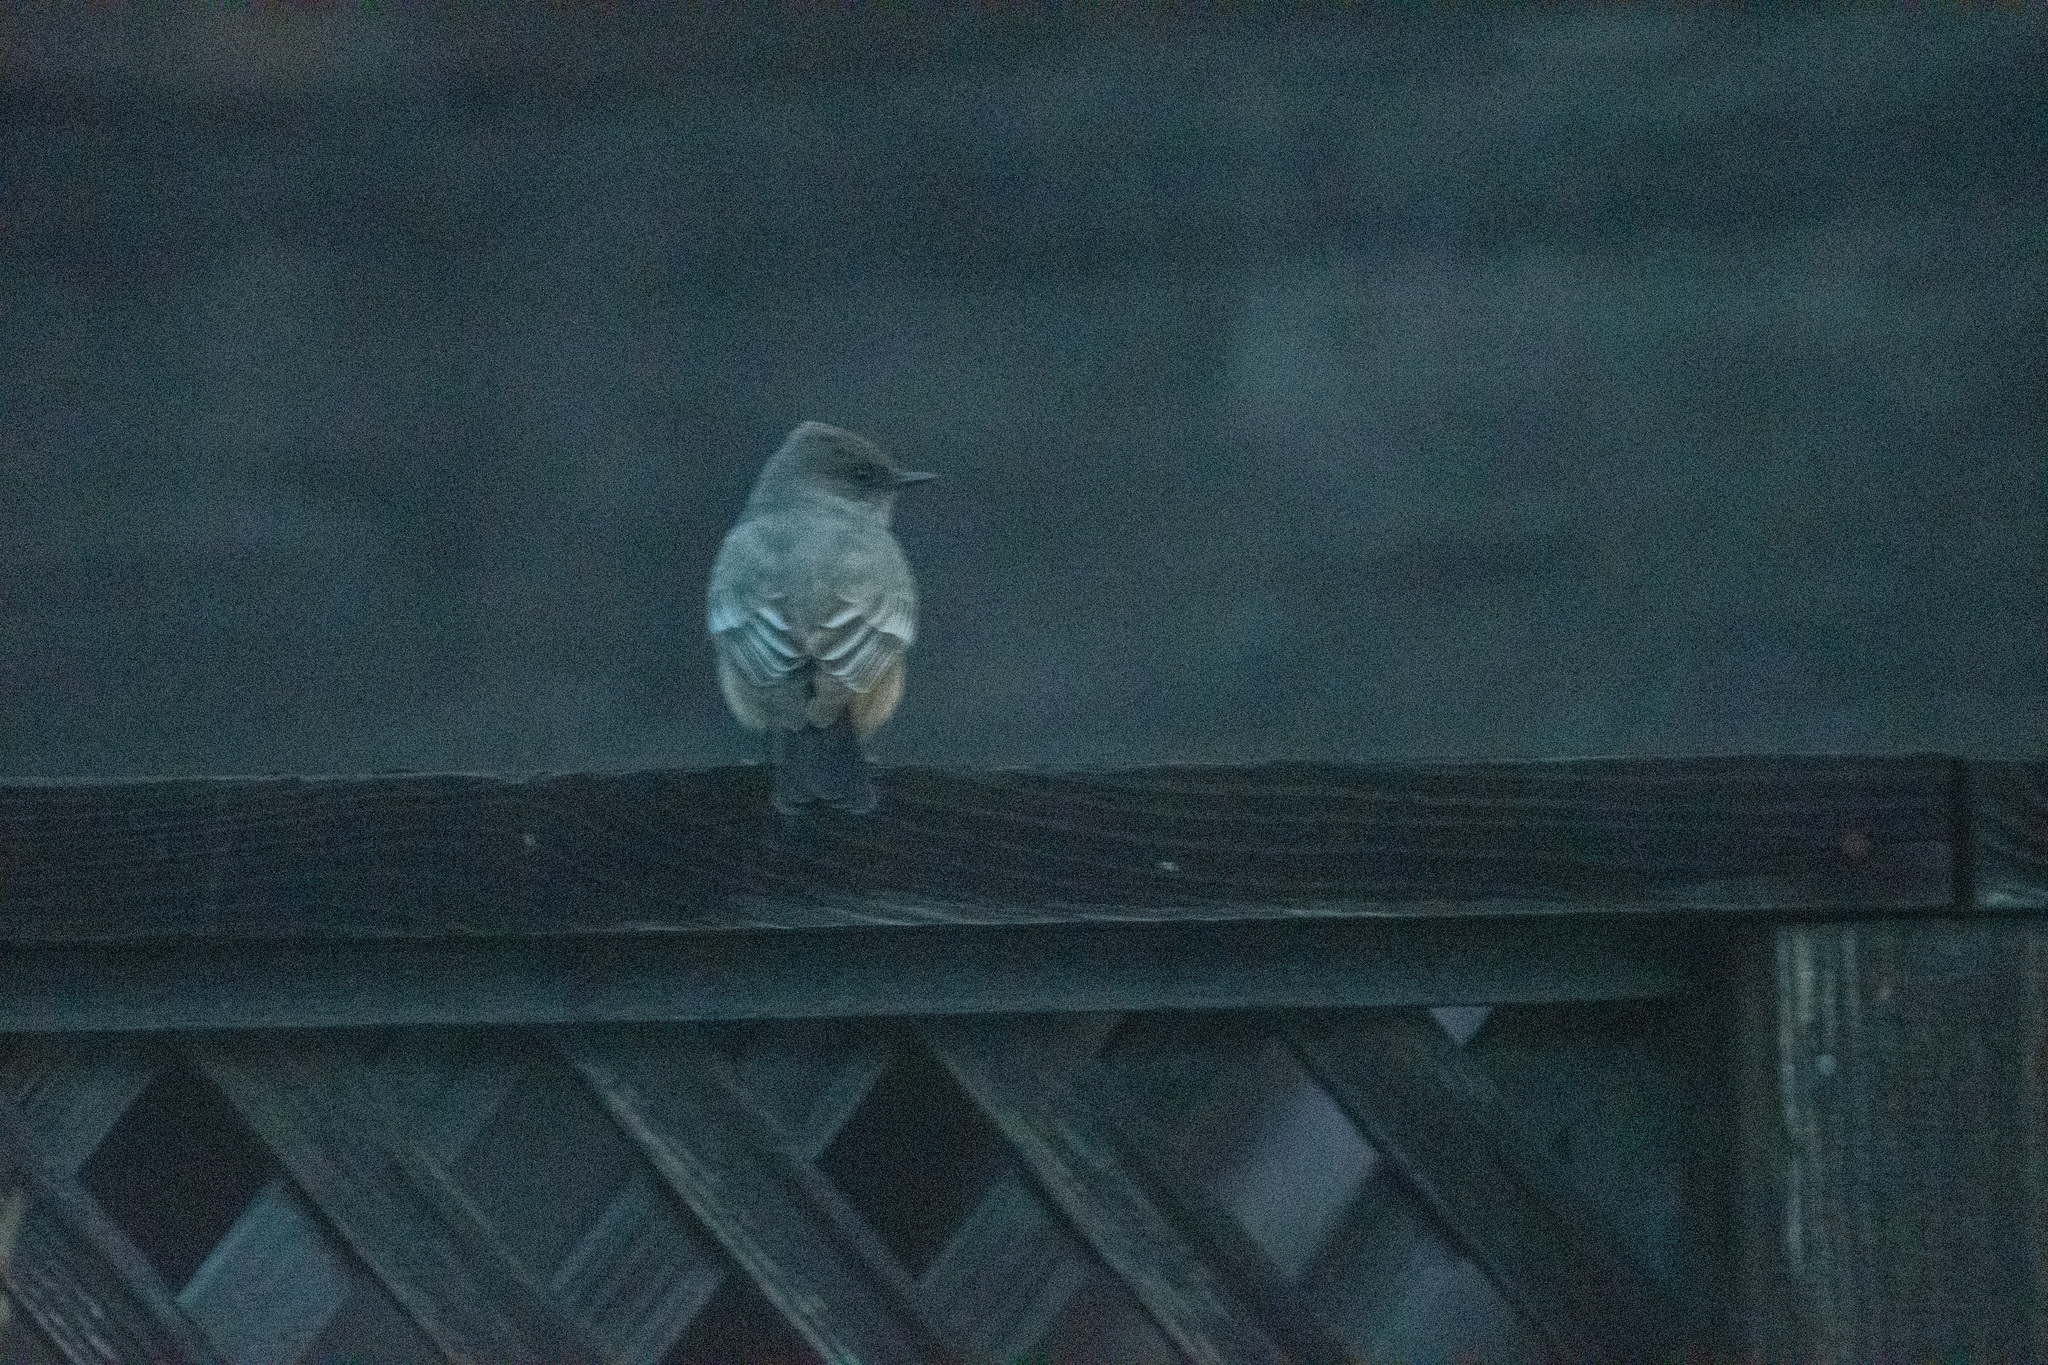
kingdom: Animalia
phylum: Chordata
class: Aves
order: Passeriformes
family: Tyrannidae
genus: Sayornis
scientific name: Sayornis saya
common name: Say's phoebe
